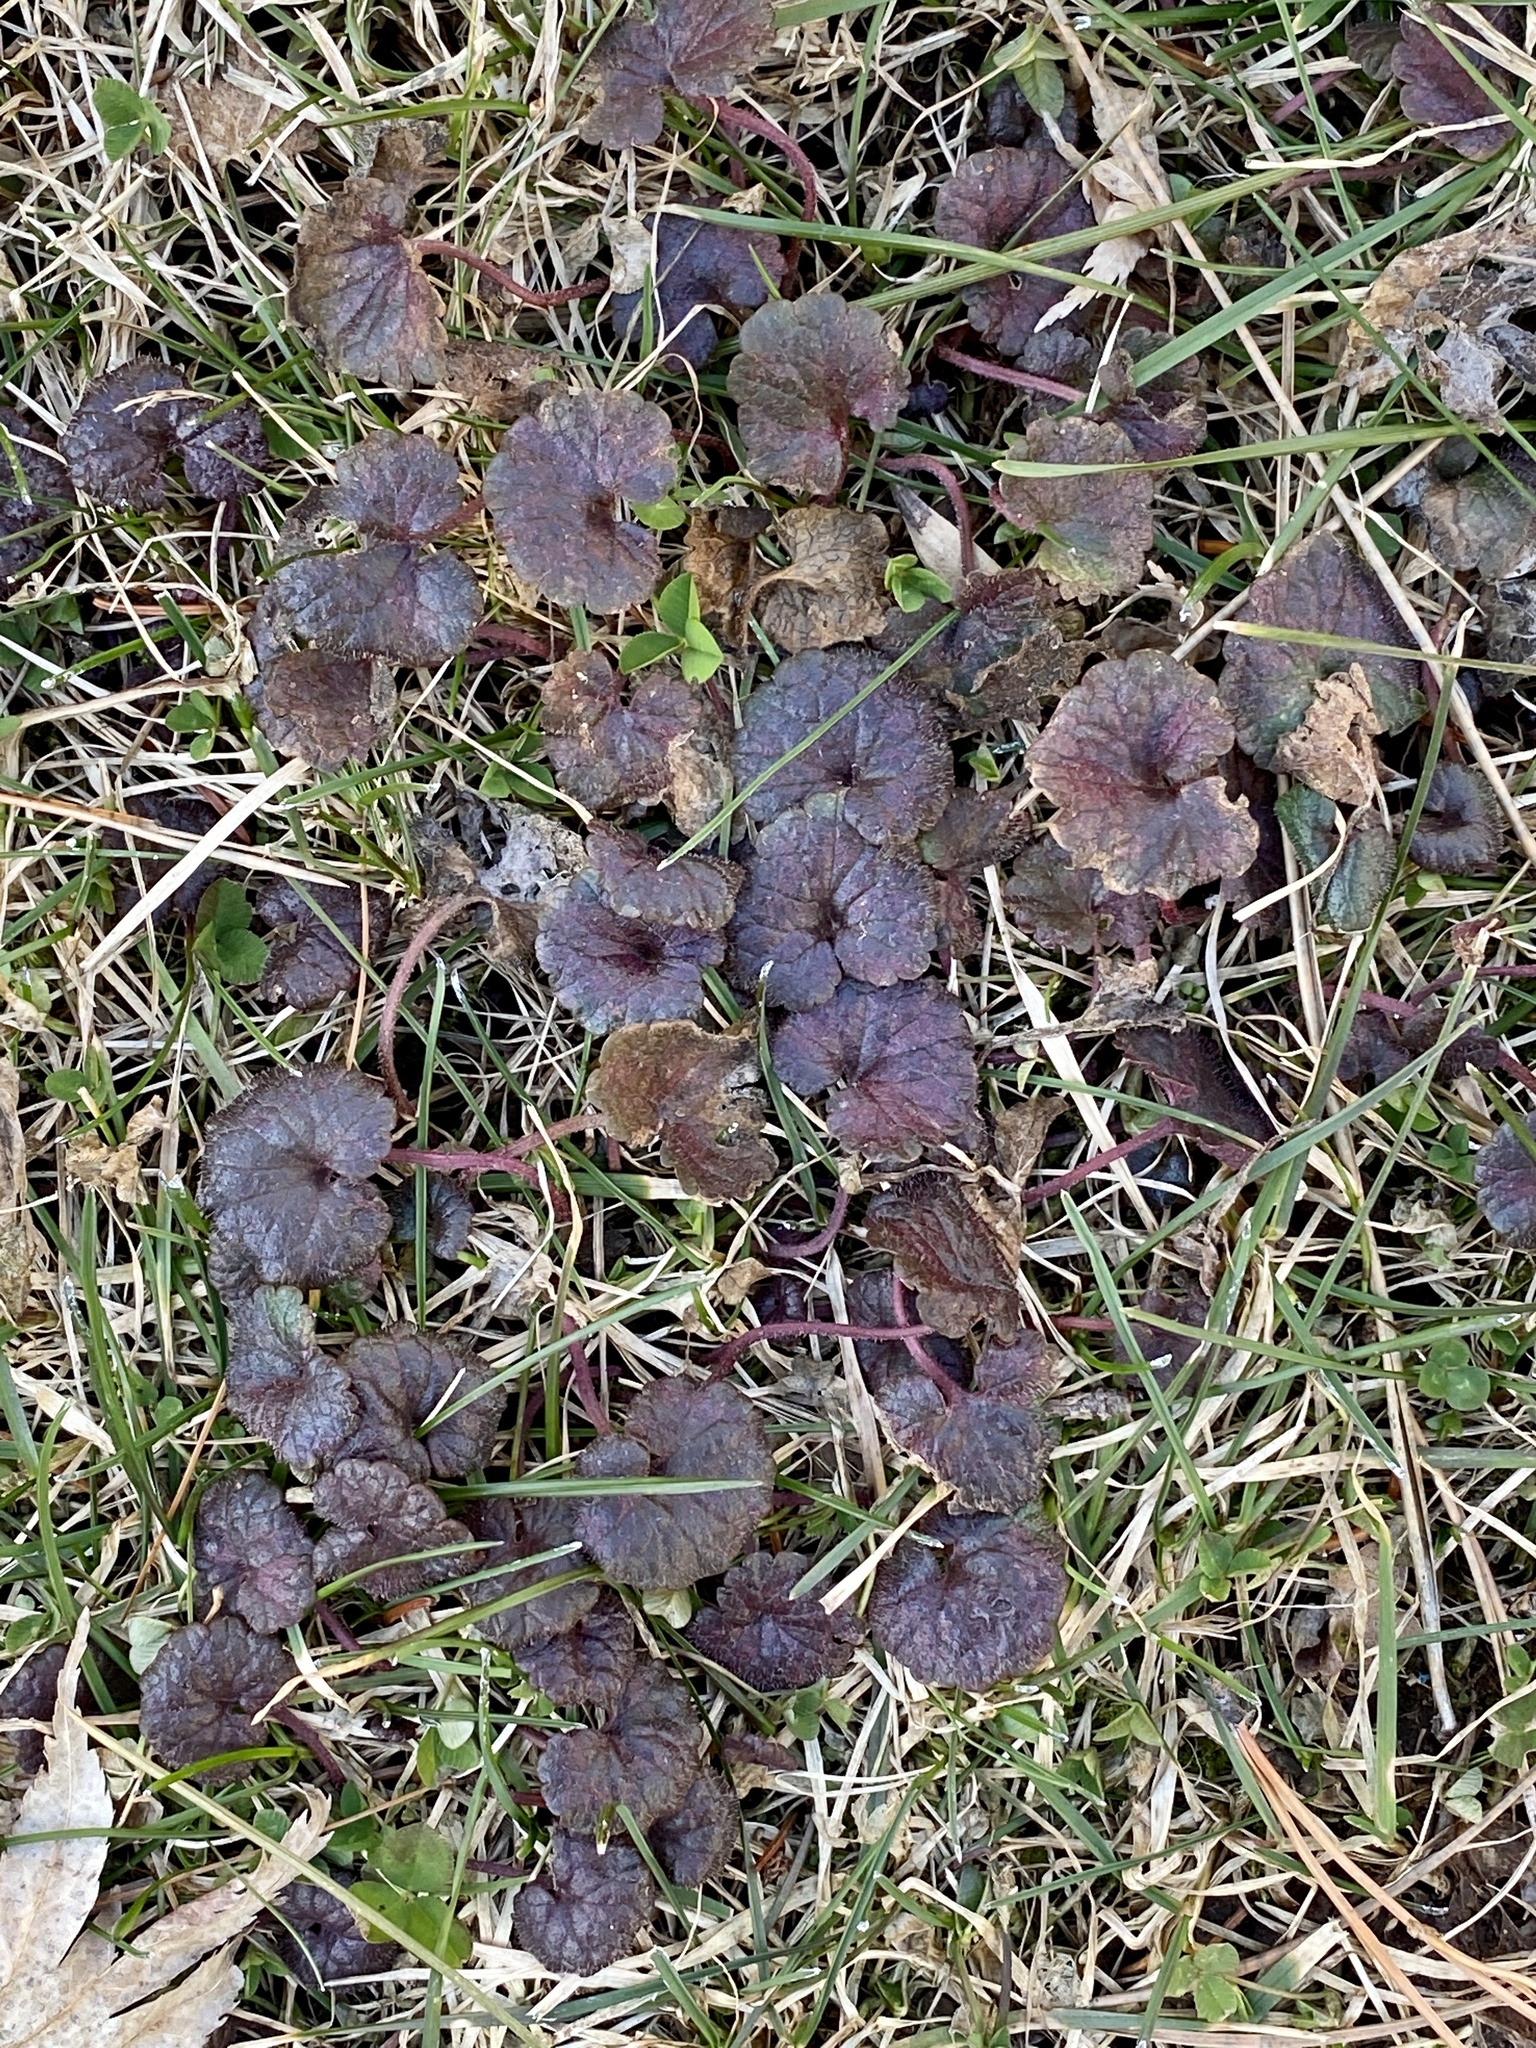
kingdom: Plantae
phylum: Tracheophyta
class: Magnoliopsida
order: Lamiales
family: Lamiaceae
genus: Glechoma
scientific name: Glechoma hederacea
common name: Ground ivy
